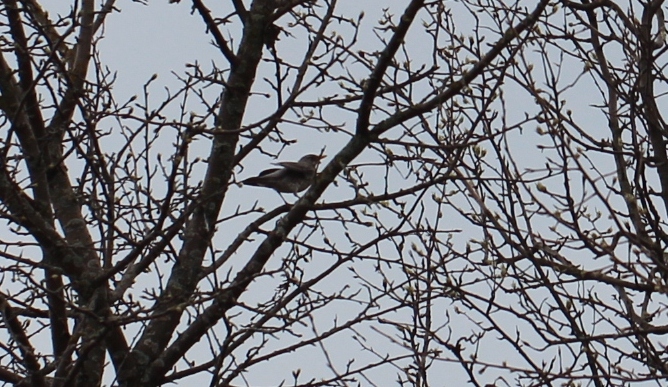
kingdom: Animalia
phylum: Chordata
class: Aves
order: Passeriformes
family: Turdidae
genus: Turdus
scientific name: Turdus pilaris
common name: Fieldfare
